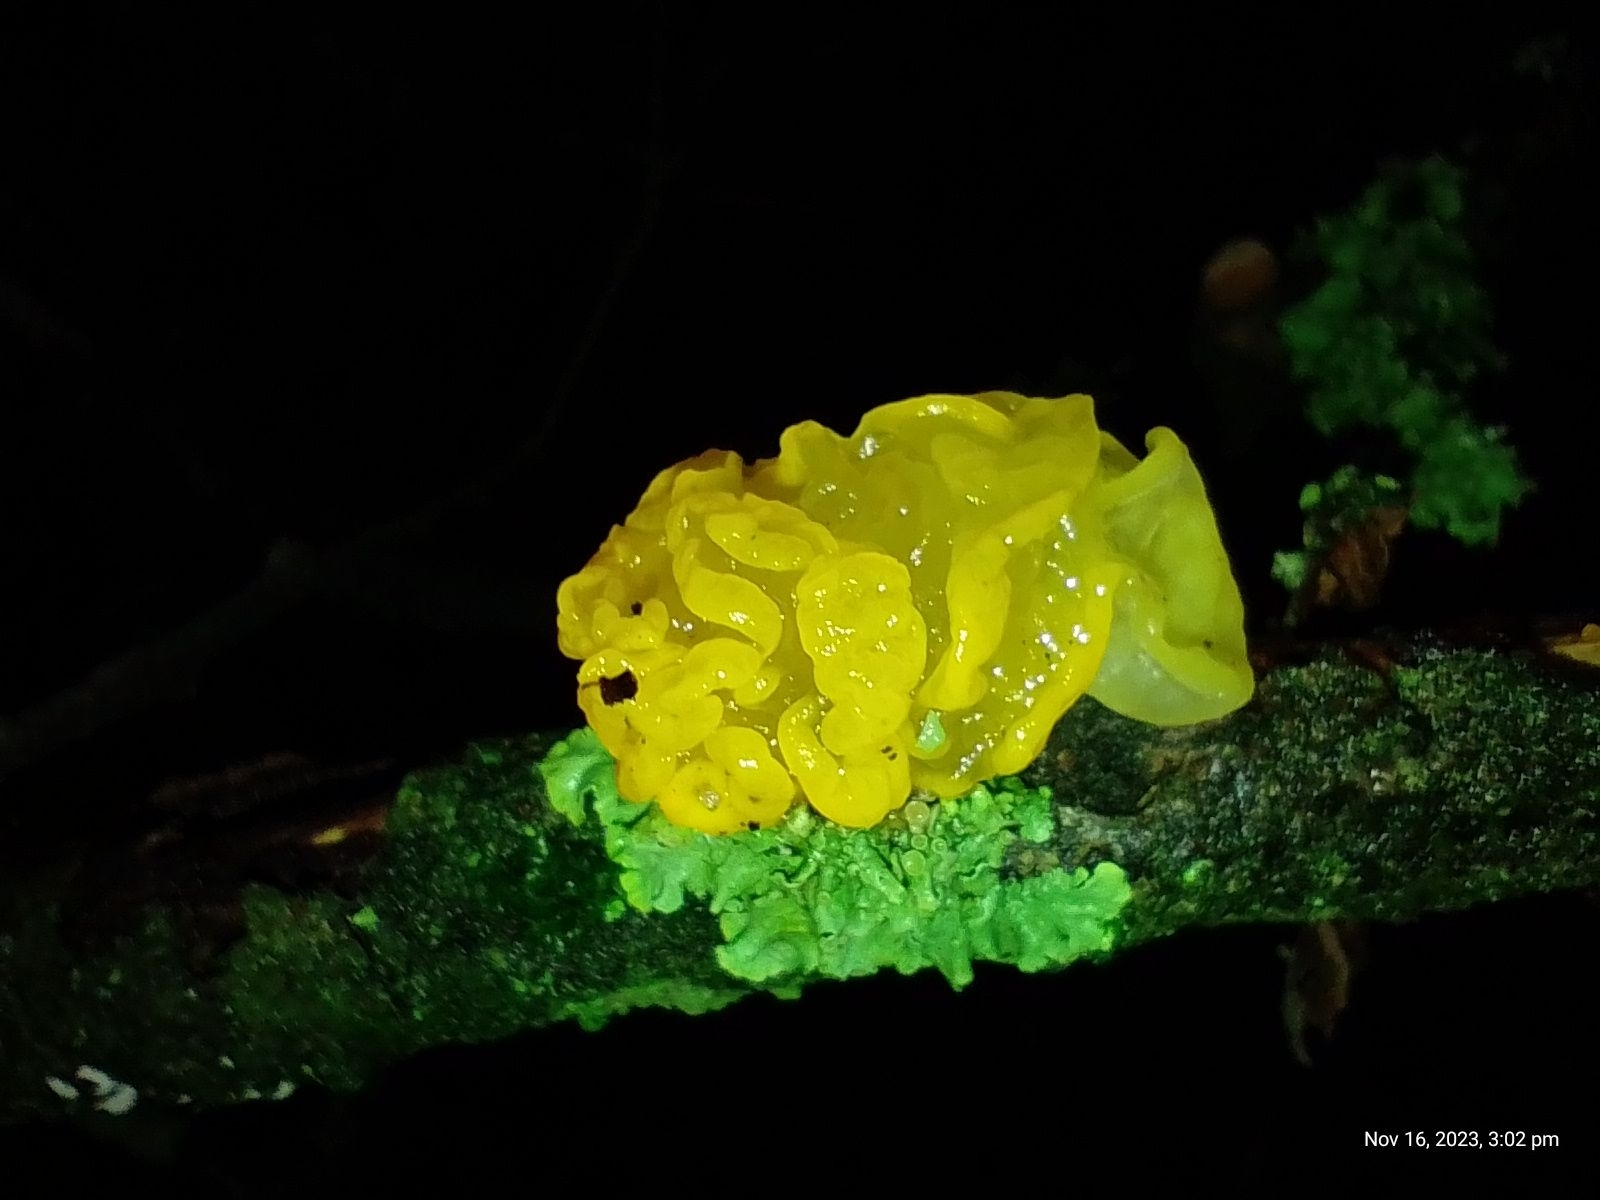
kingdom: Fungi
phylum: Basidiomycota
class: Tremellomycetes
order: Tremellales
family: Tremellaceae
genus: Tremella
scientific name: Tremella mesenterica
